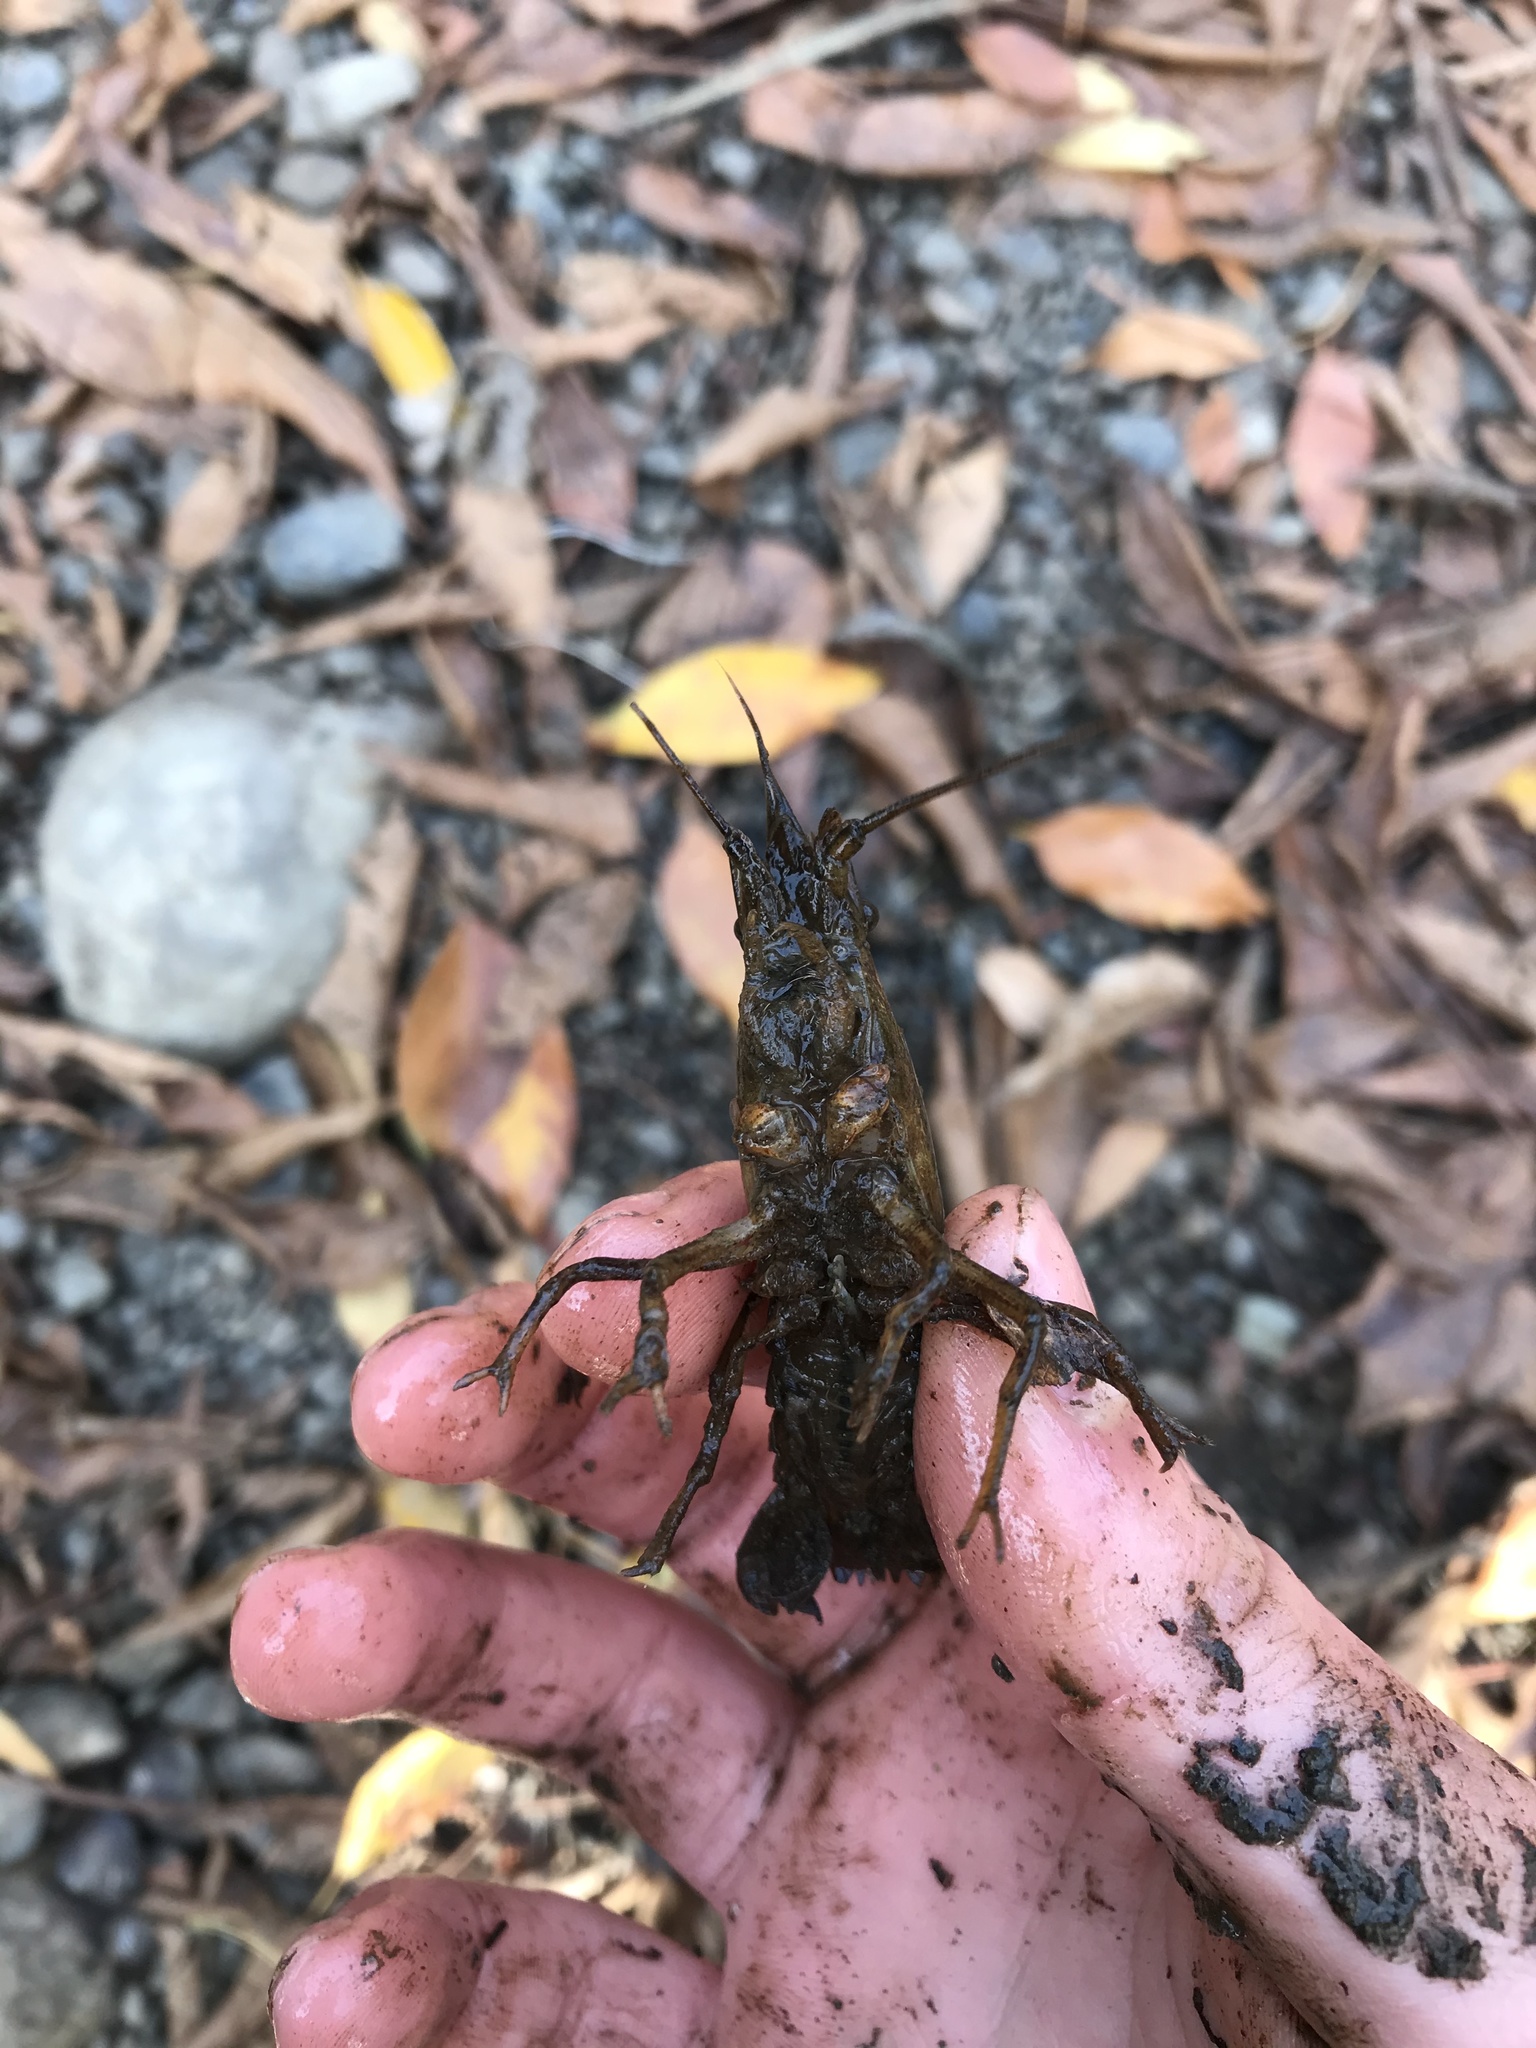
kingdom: Animalia
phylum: Arthropoda
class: Malacostraca
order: Decapoda
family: Cambaridae
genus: Procambarus
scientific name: Procambarus clarkii
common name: Red swamp crayfish
